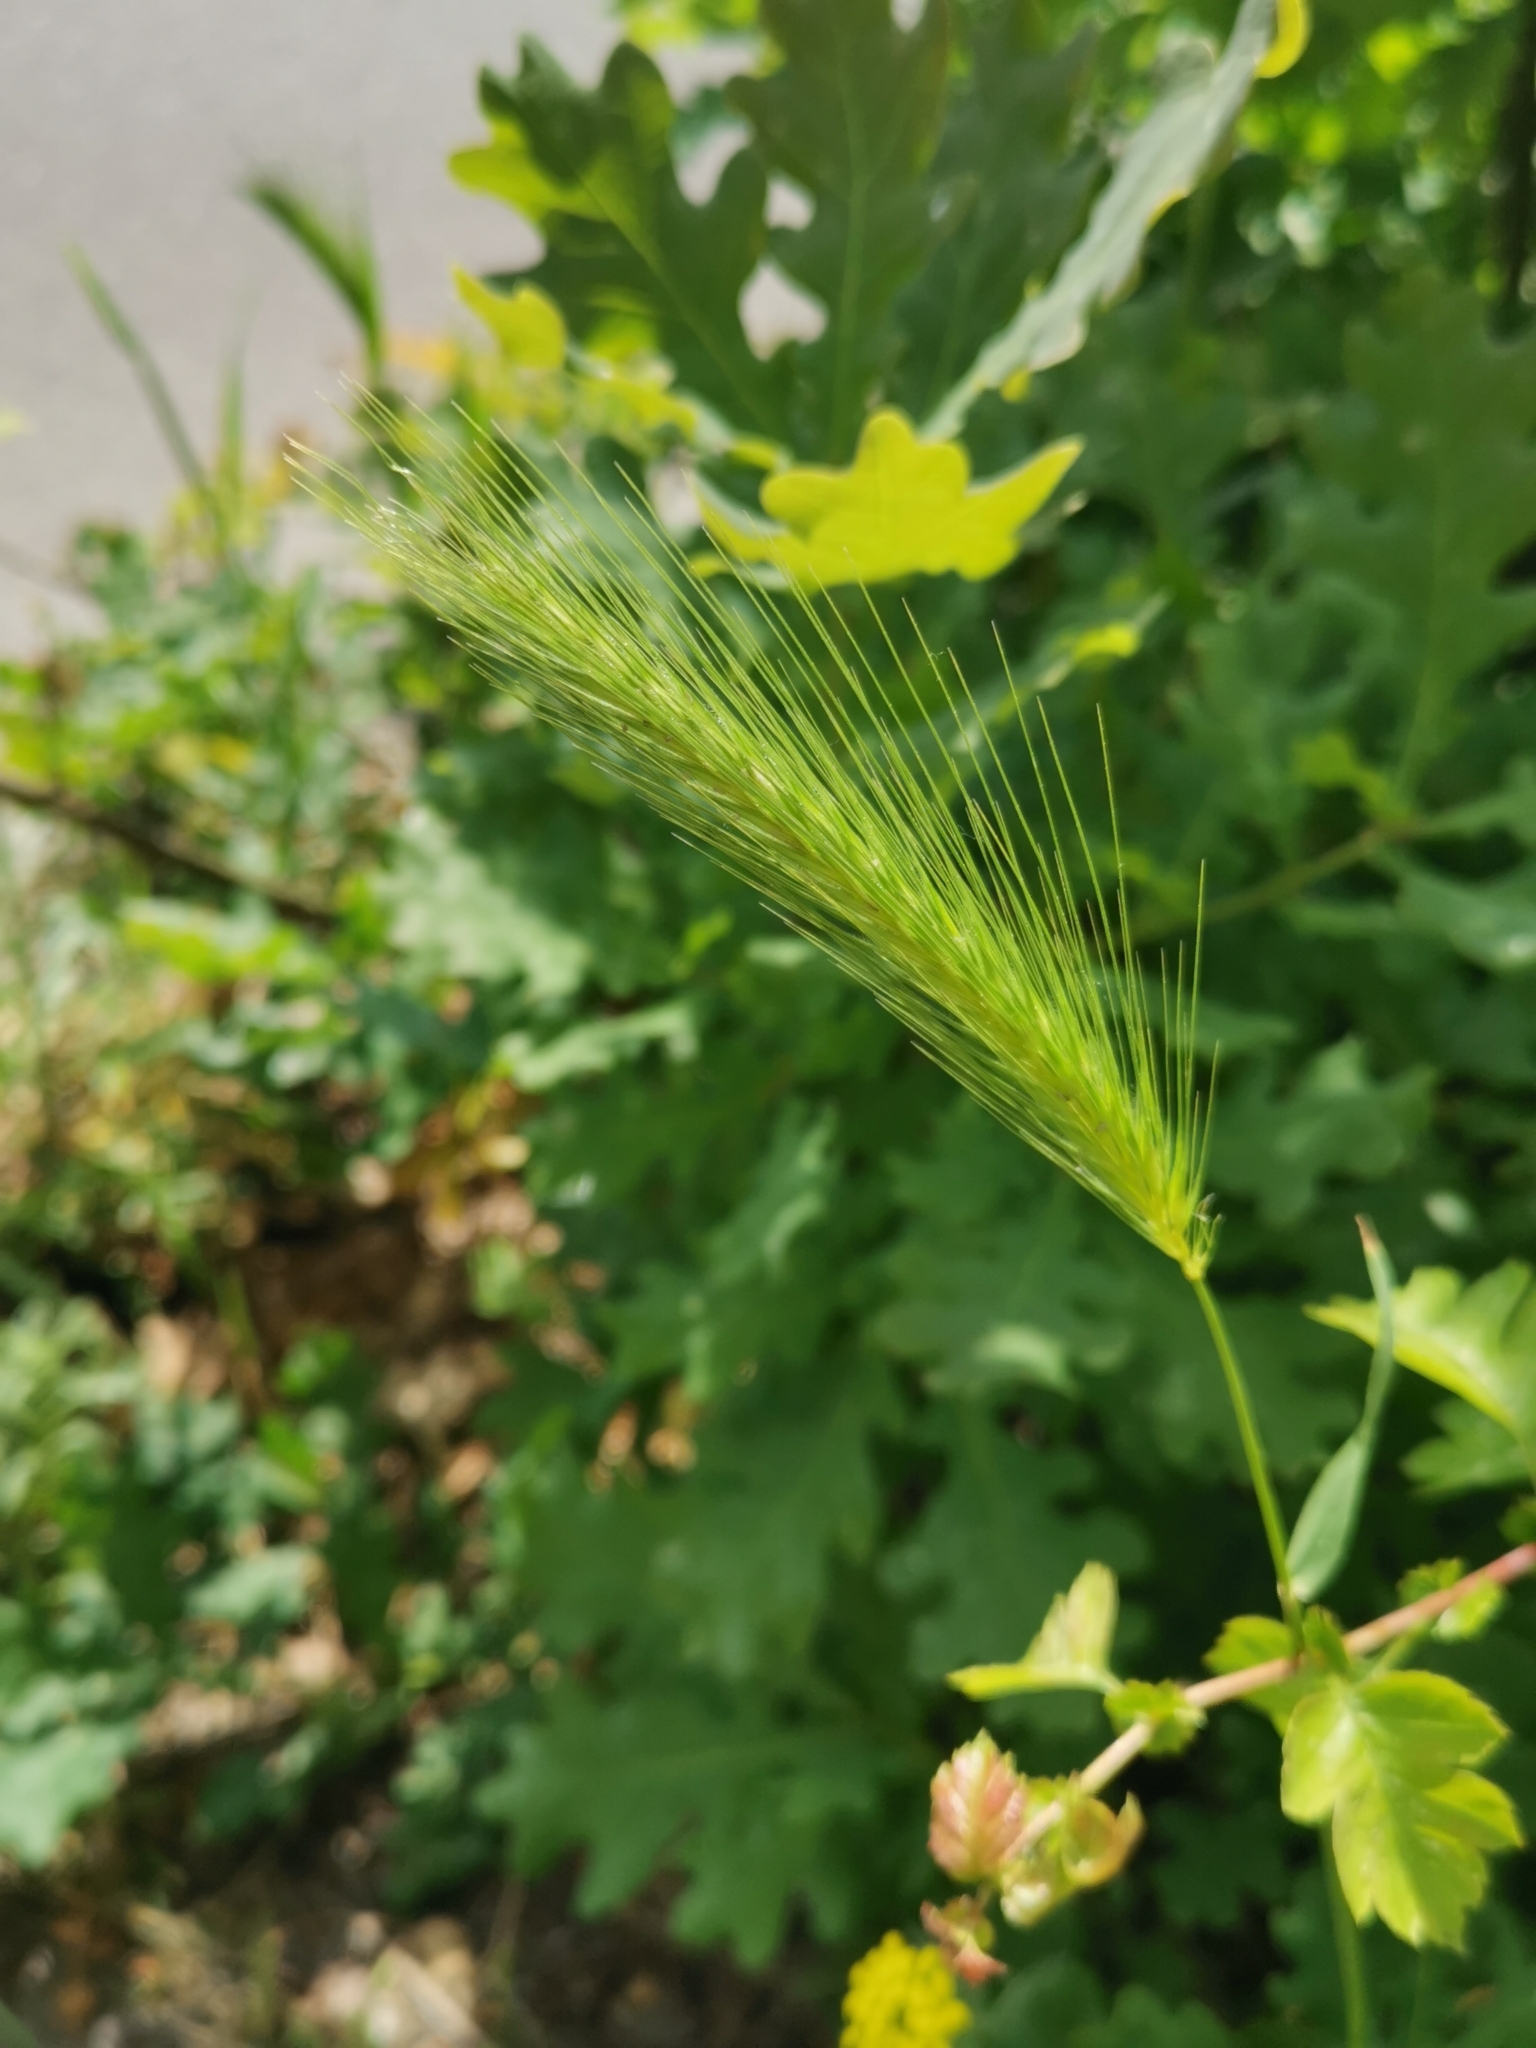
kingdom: Plantae
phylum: Tracheophyta
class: Liliopsida
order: Poales
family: Poaceae
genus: Hordeum
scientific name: Hordeum murinum
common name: Wall barley
